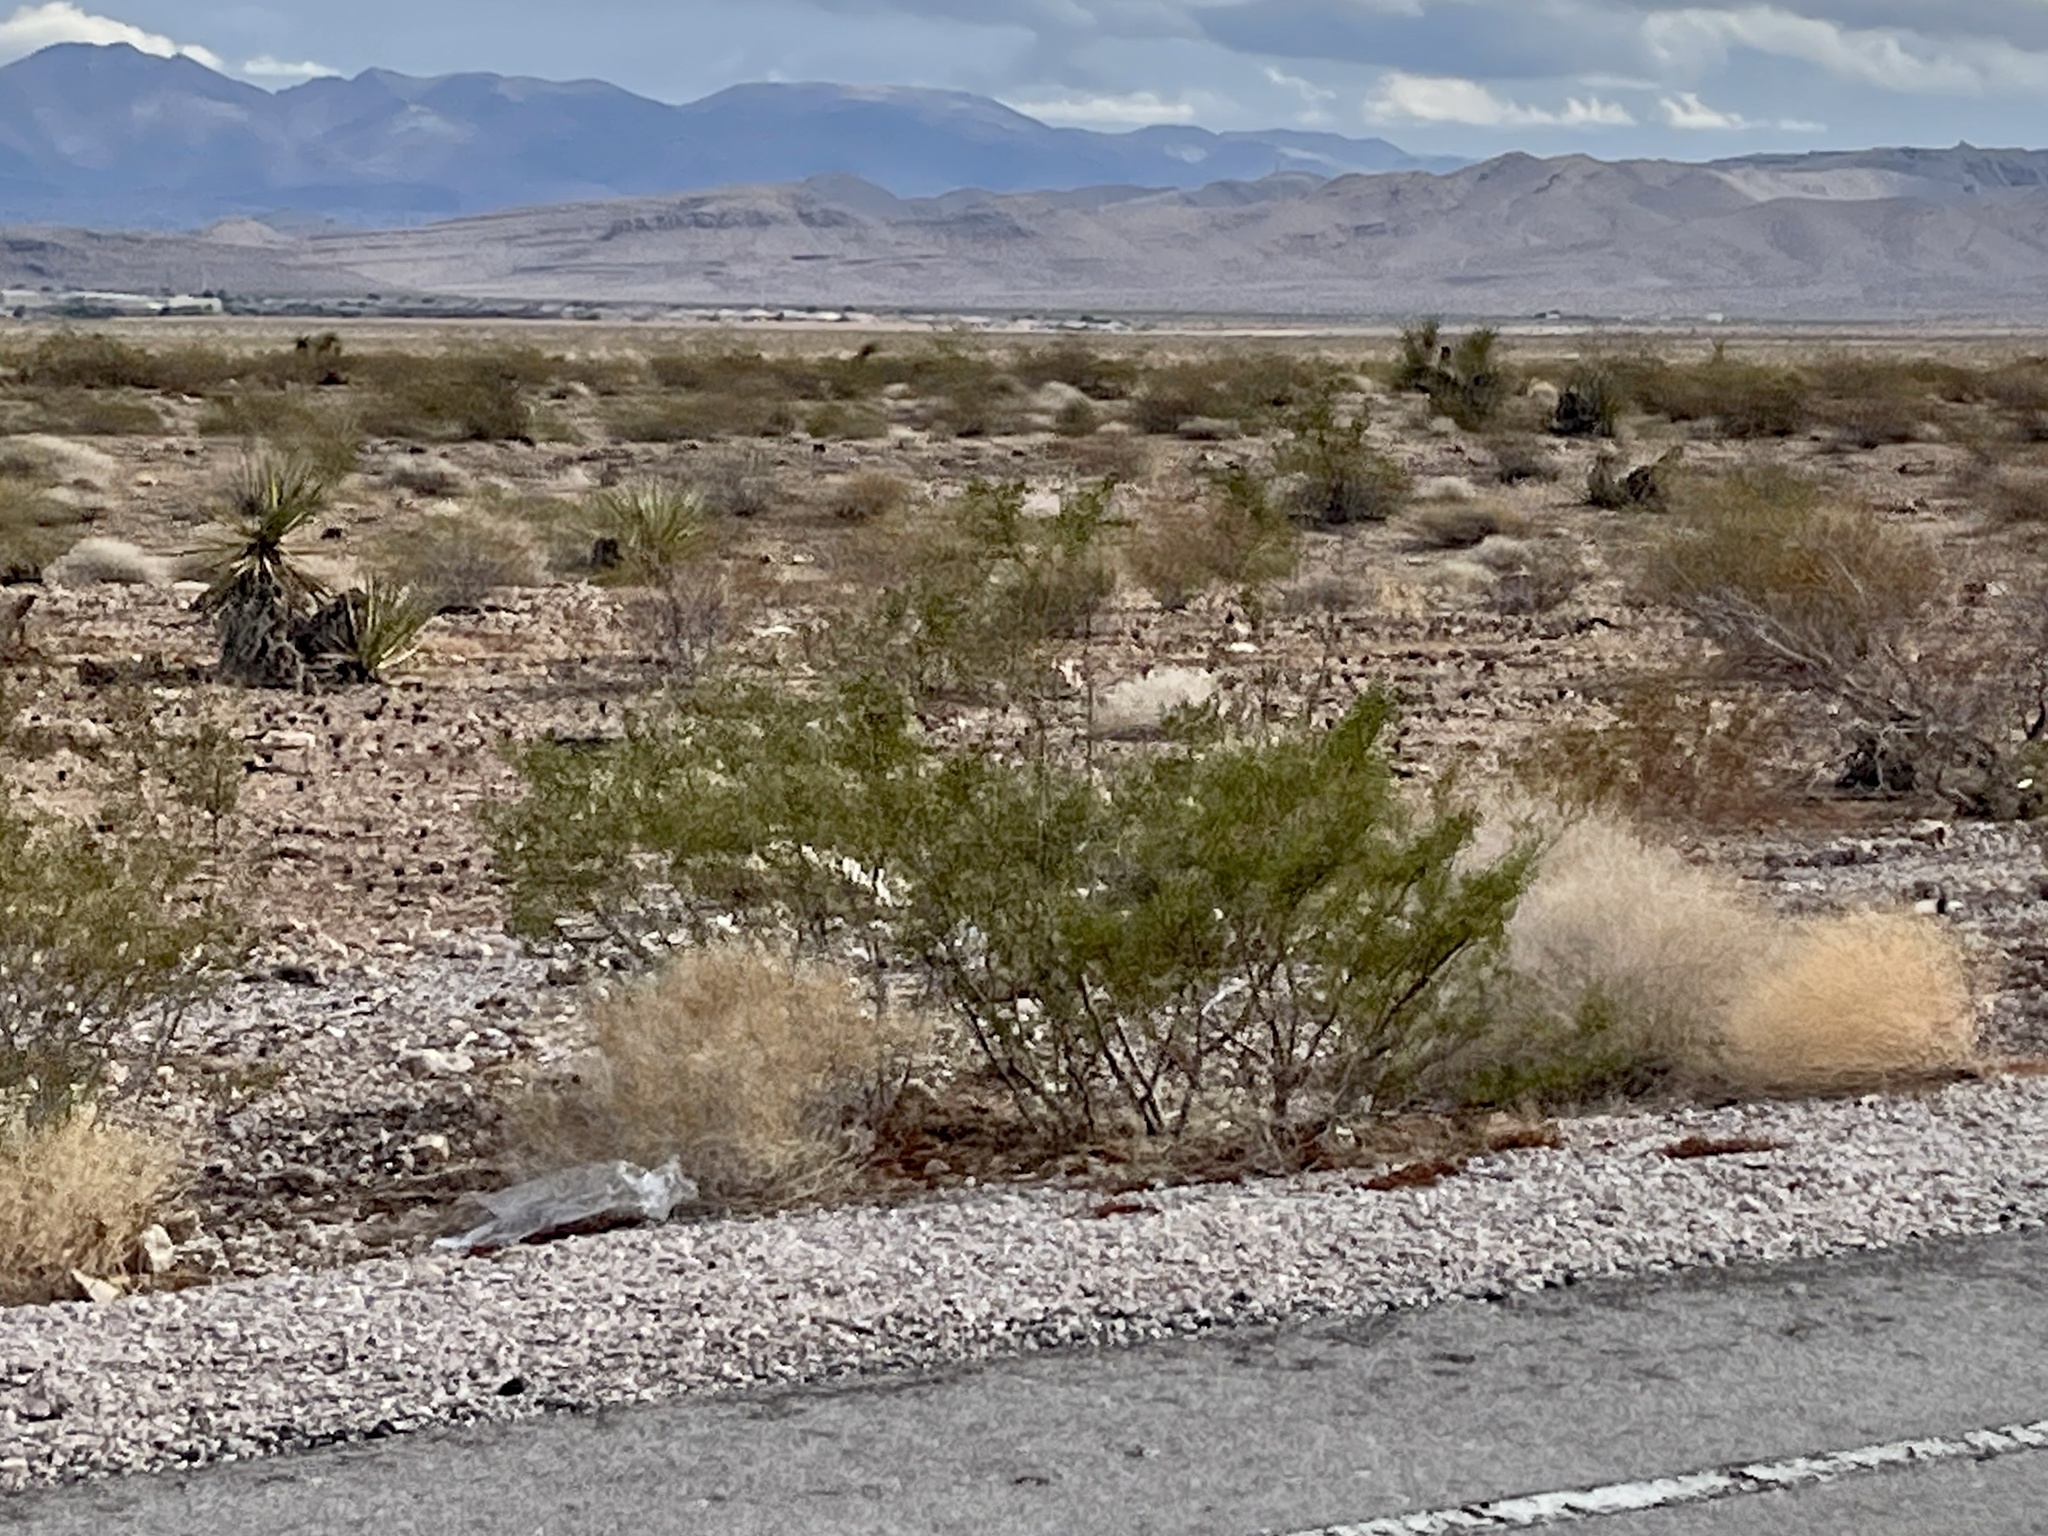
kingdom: Plantae
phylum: Tracheophyta
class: Magnoliopsida
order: Zygophyllales
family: Zygophyllaceae
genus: Larrea
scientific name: Larrea tridentata
